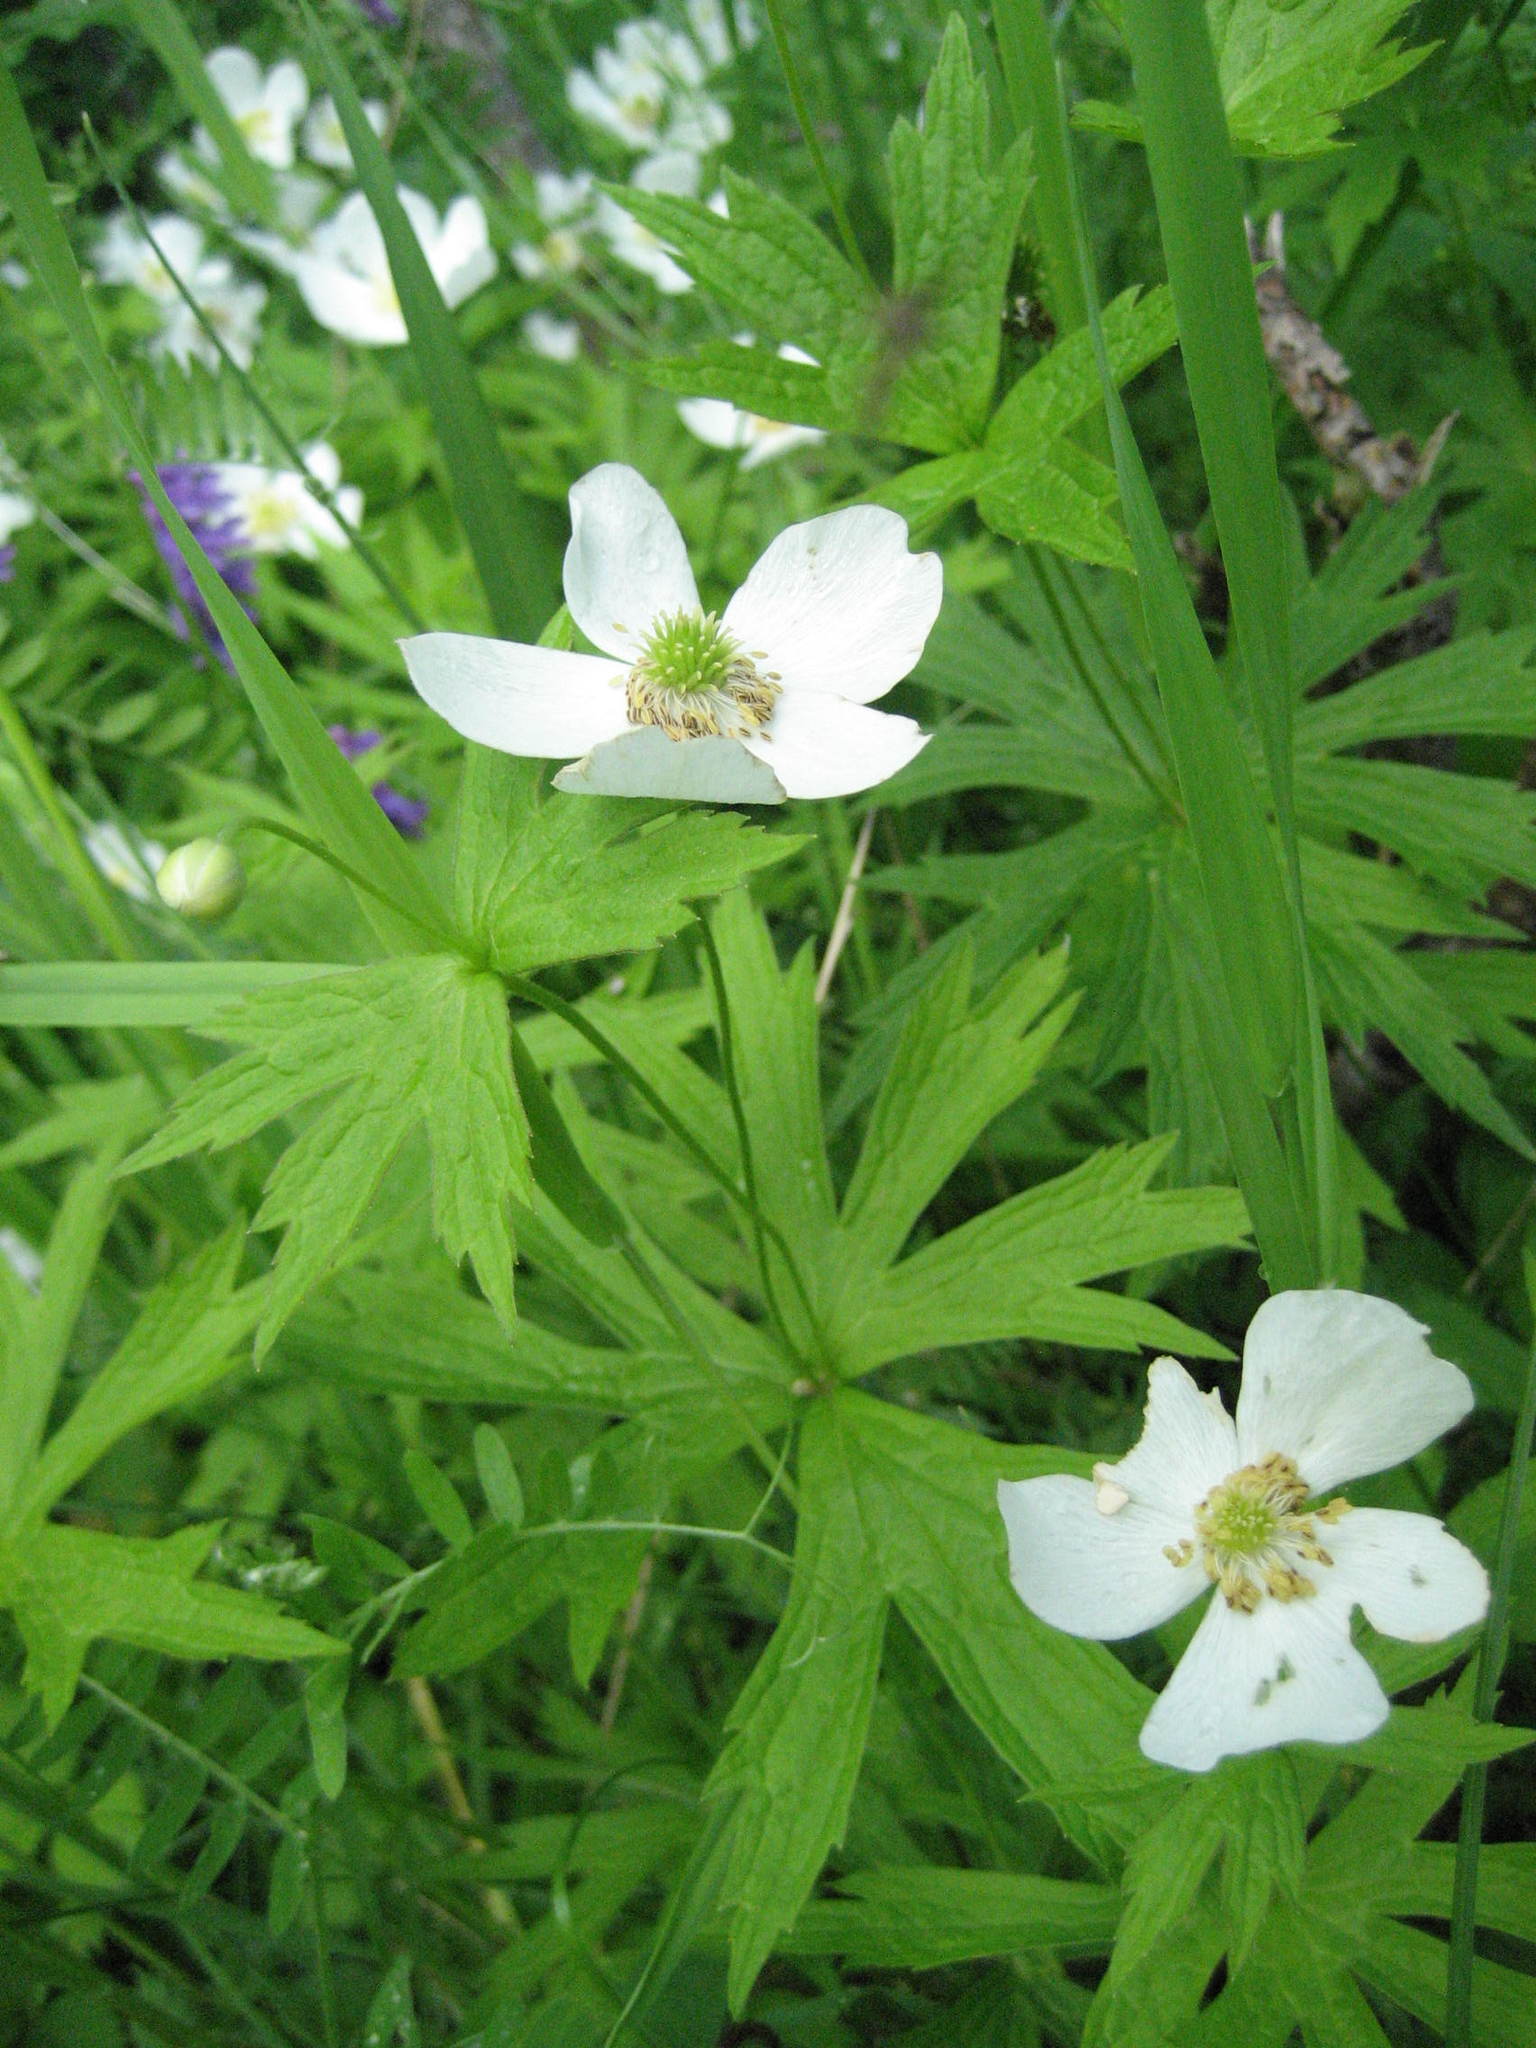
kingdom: Plantae
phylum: Tracheophyta
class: Magnoliopsida
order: Ranunculales
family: Ranunculaceae
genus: Anemonastrum
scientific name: Anemonastrum canadense
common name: Canada anemone
